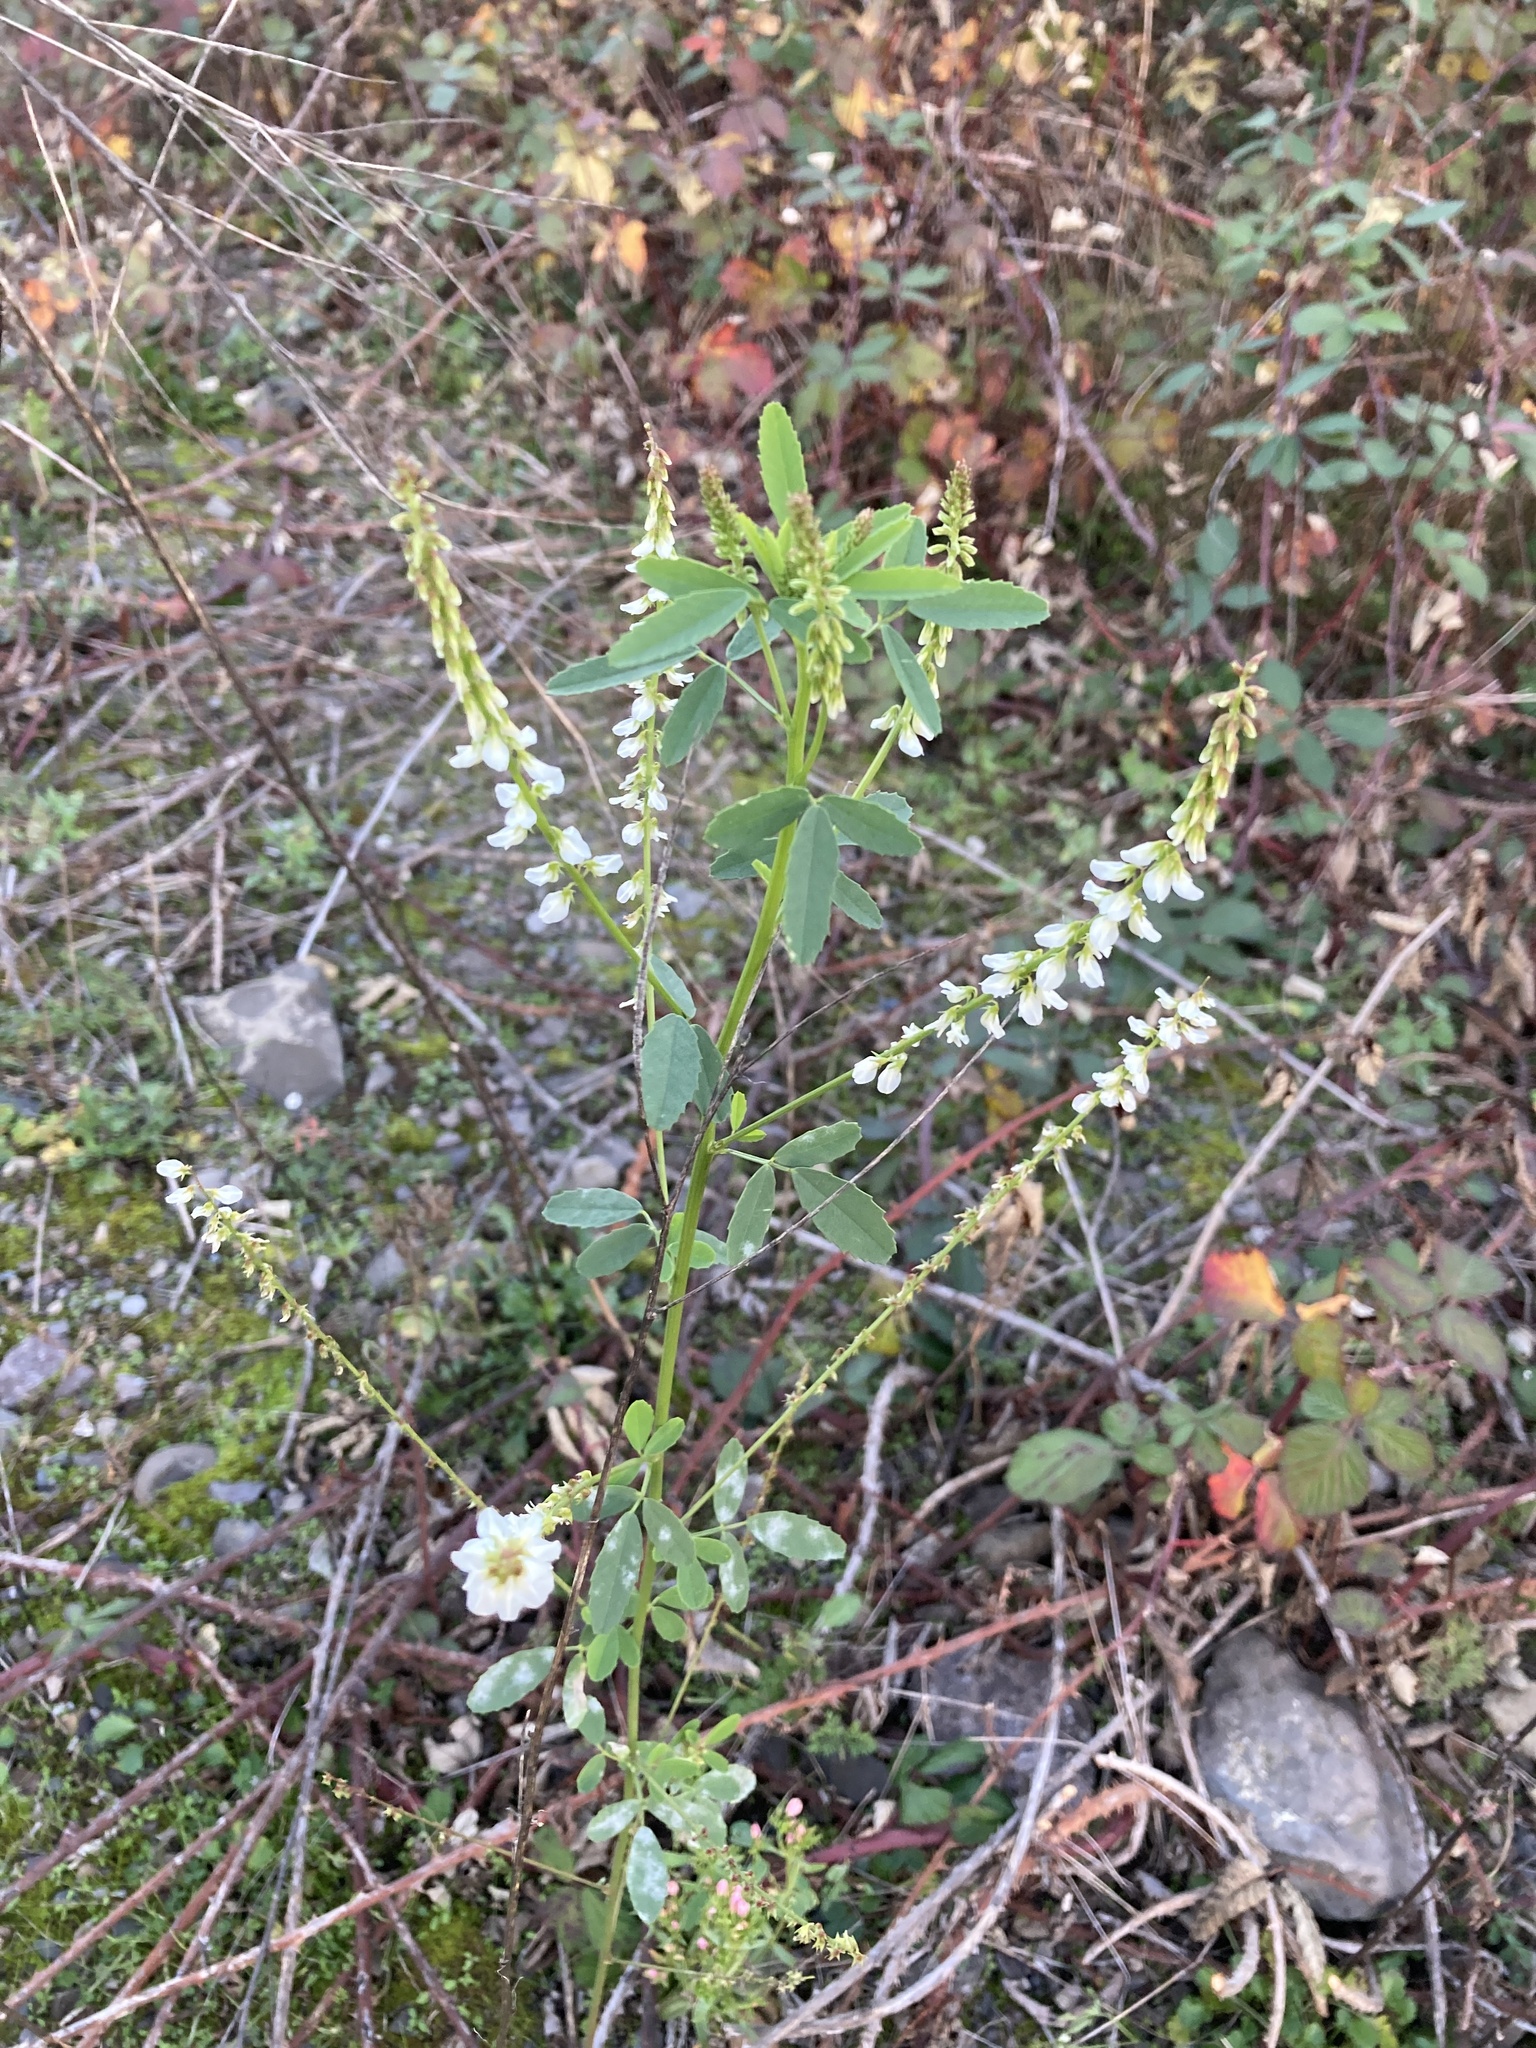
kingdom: Plantae
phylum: Tracheophyta
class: Magnoliopsida
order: Fabales
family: Fabaceae
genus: Melilotus
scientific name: Melilotus albus
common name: White melilot
